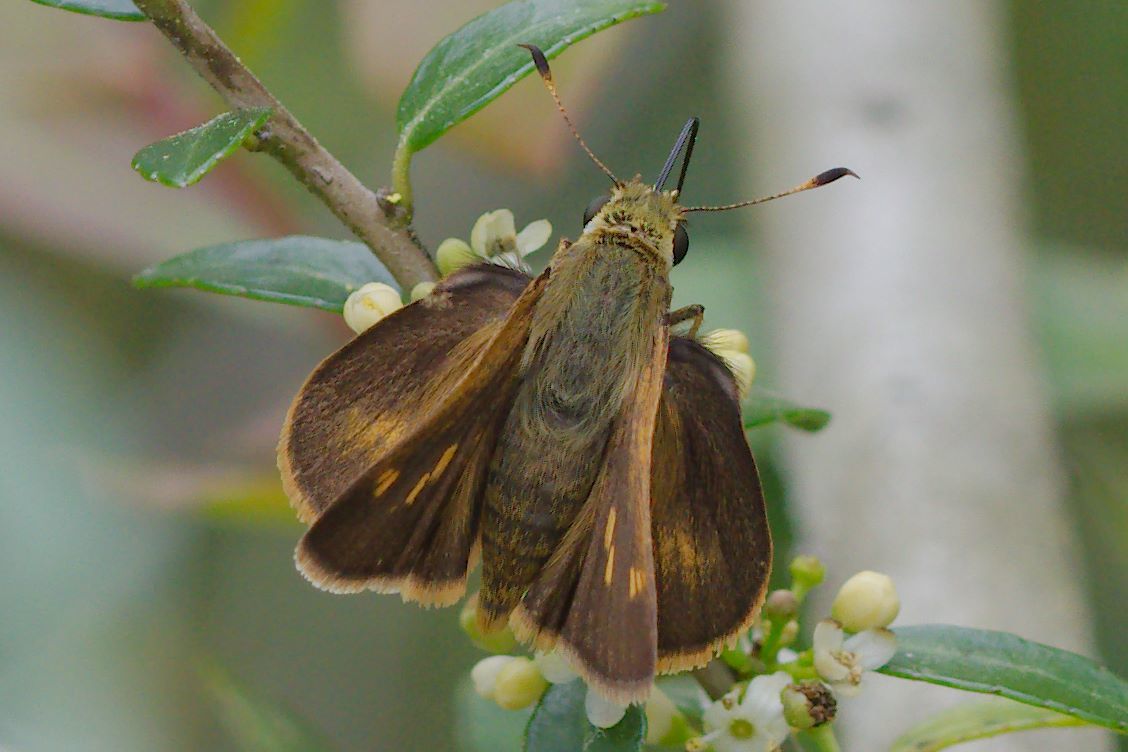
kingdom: Animalia
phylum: Arthropoda
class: Insecta
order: Lepidoptera
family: Hesperiidae
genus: Polites
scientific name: Polites otho
